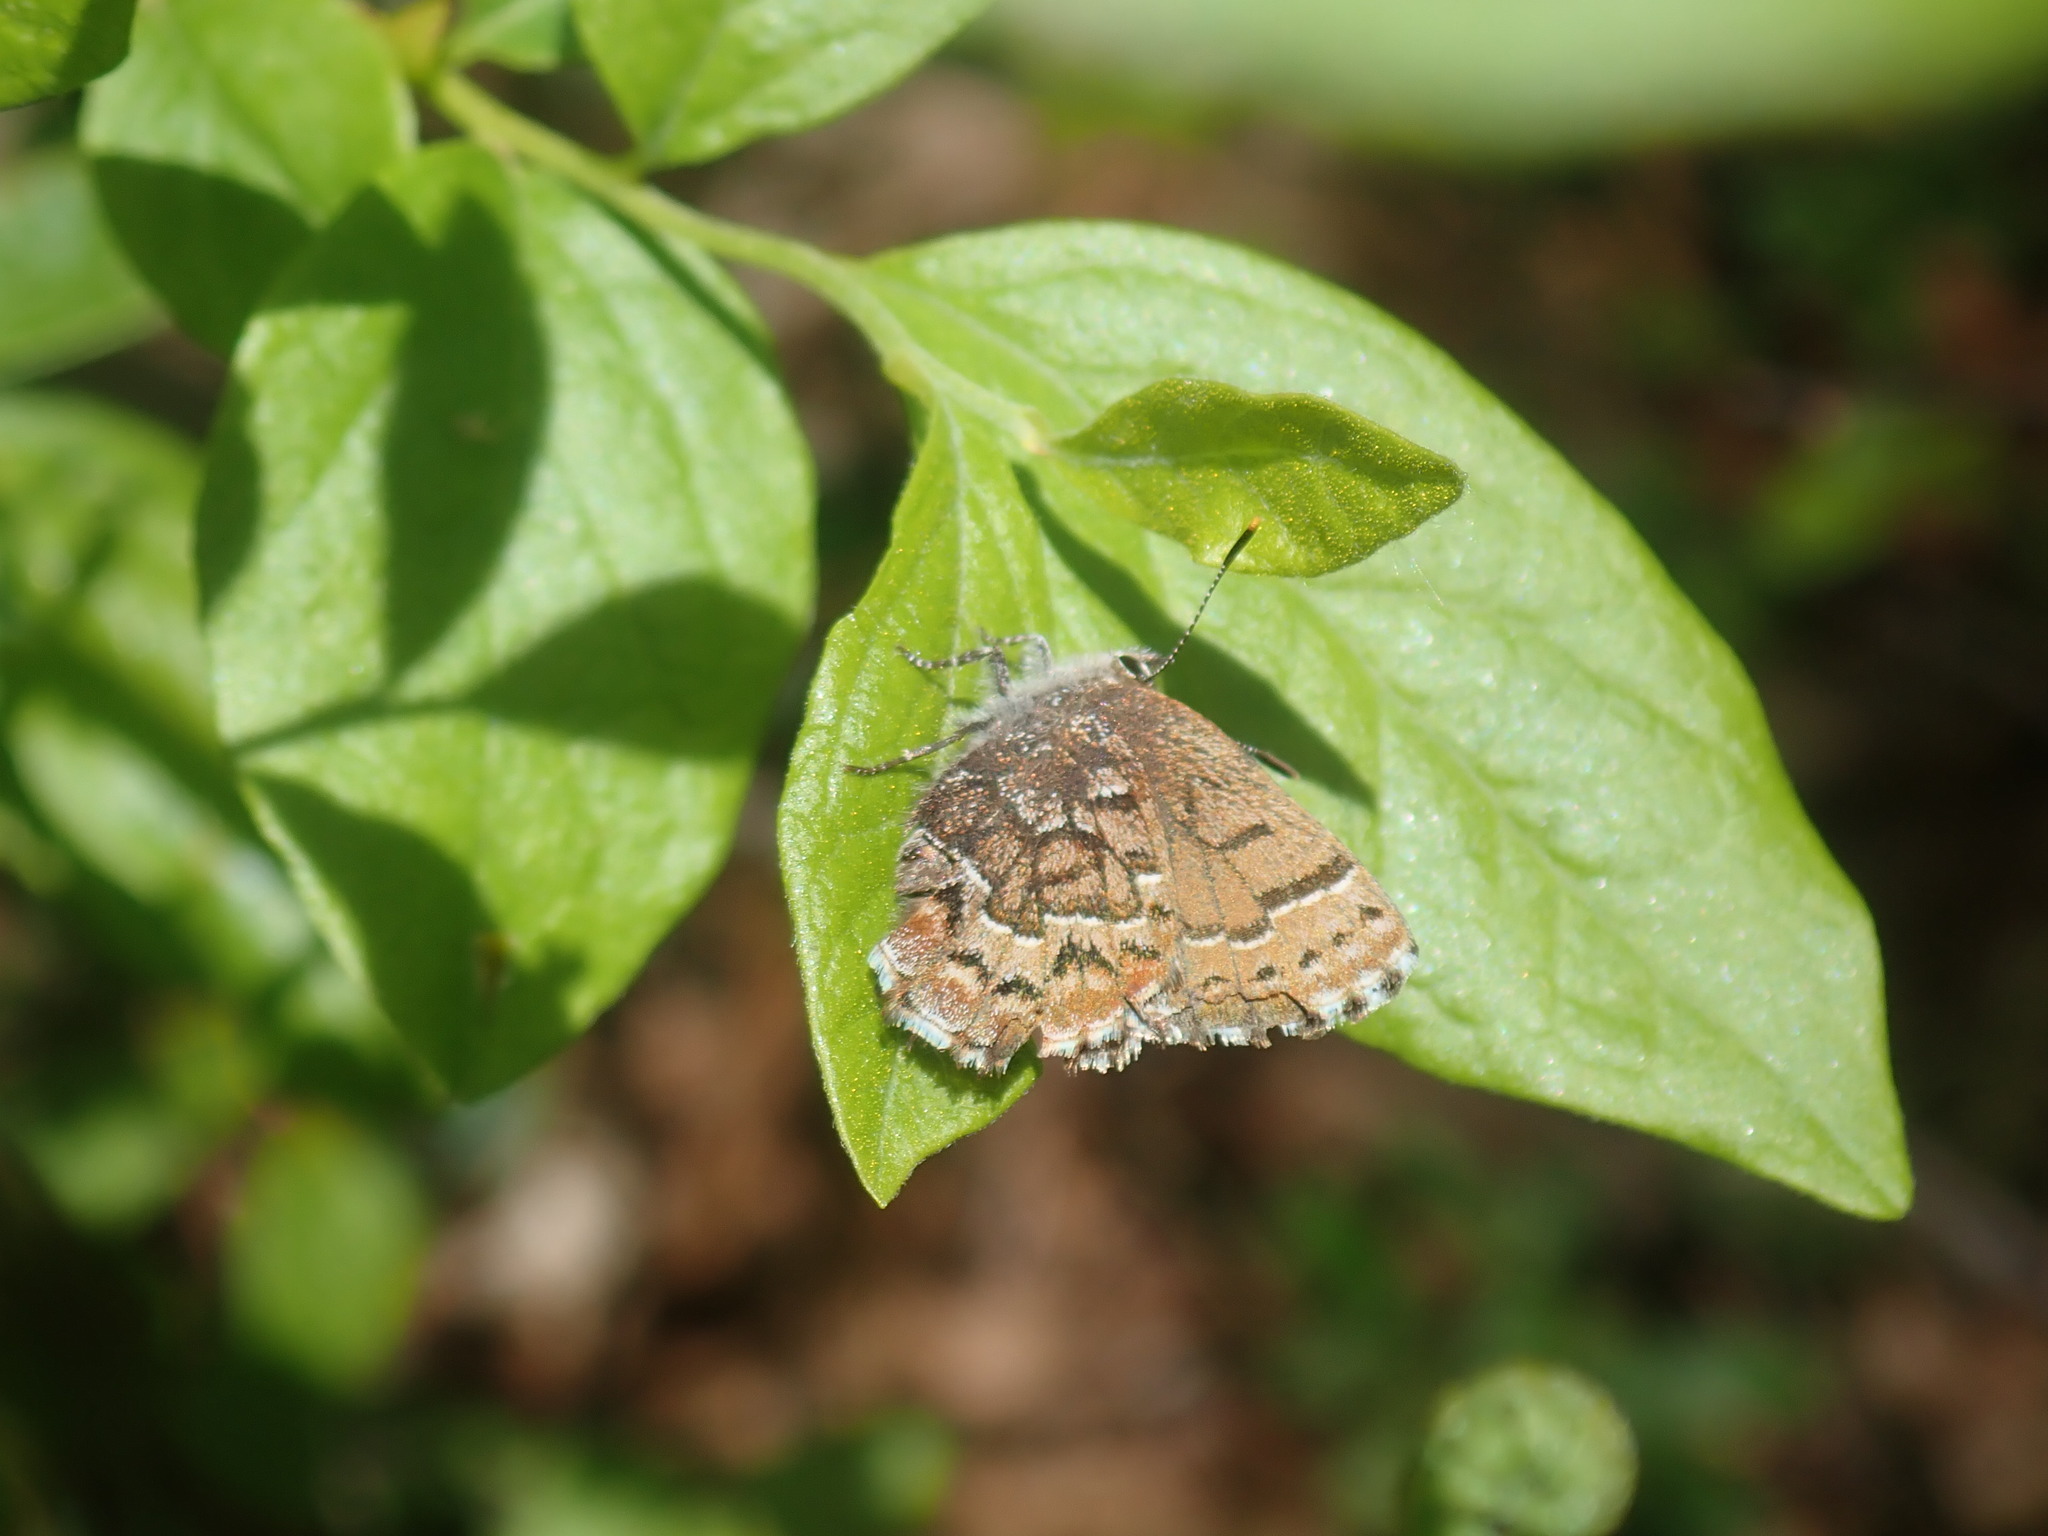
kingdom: Animalia
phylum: Arthropoda
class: Insecta
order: Lepidoptera
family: Lycaenidae
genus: Incisalia
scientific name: Incisalia niphon
